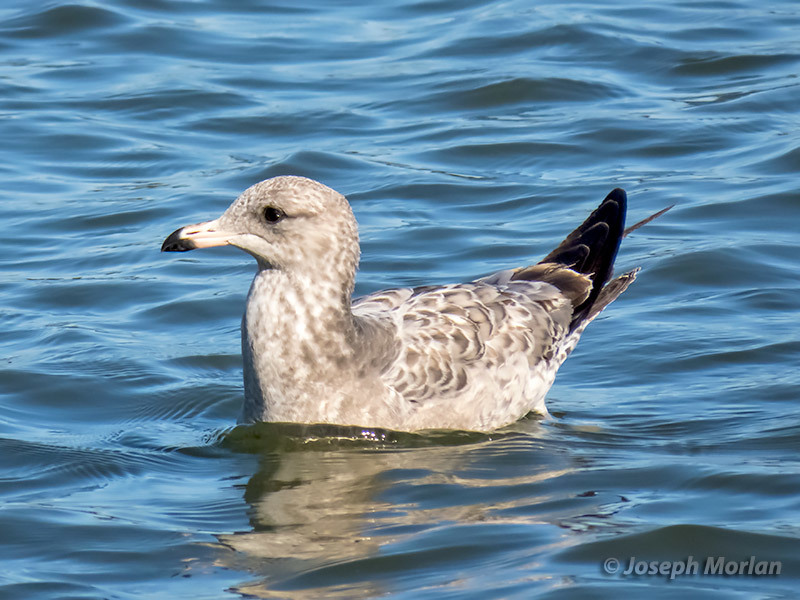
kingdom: Animalia
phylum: Chordata
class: Aves
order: Charadriiformes
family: Laridae
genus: Larus
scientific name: Larus californicus
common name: California gull
